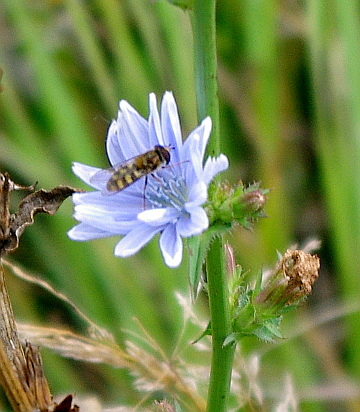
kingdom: Animalia
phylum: Arthropoda
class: Insecta
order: Diptera
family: Syrphidae
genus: Eupeodes
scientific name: Eupeodes
